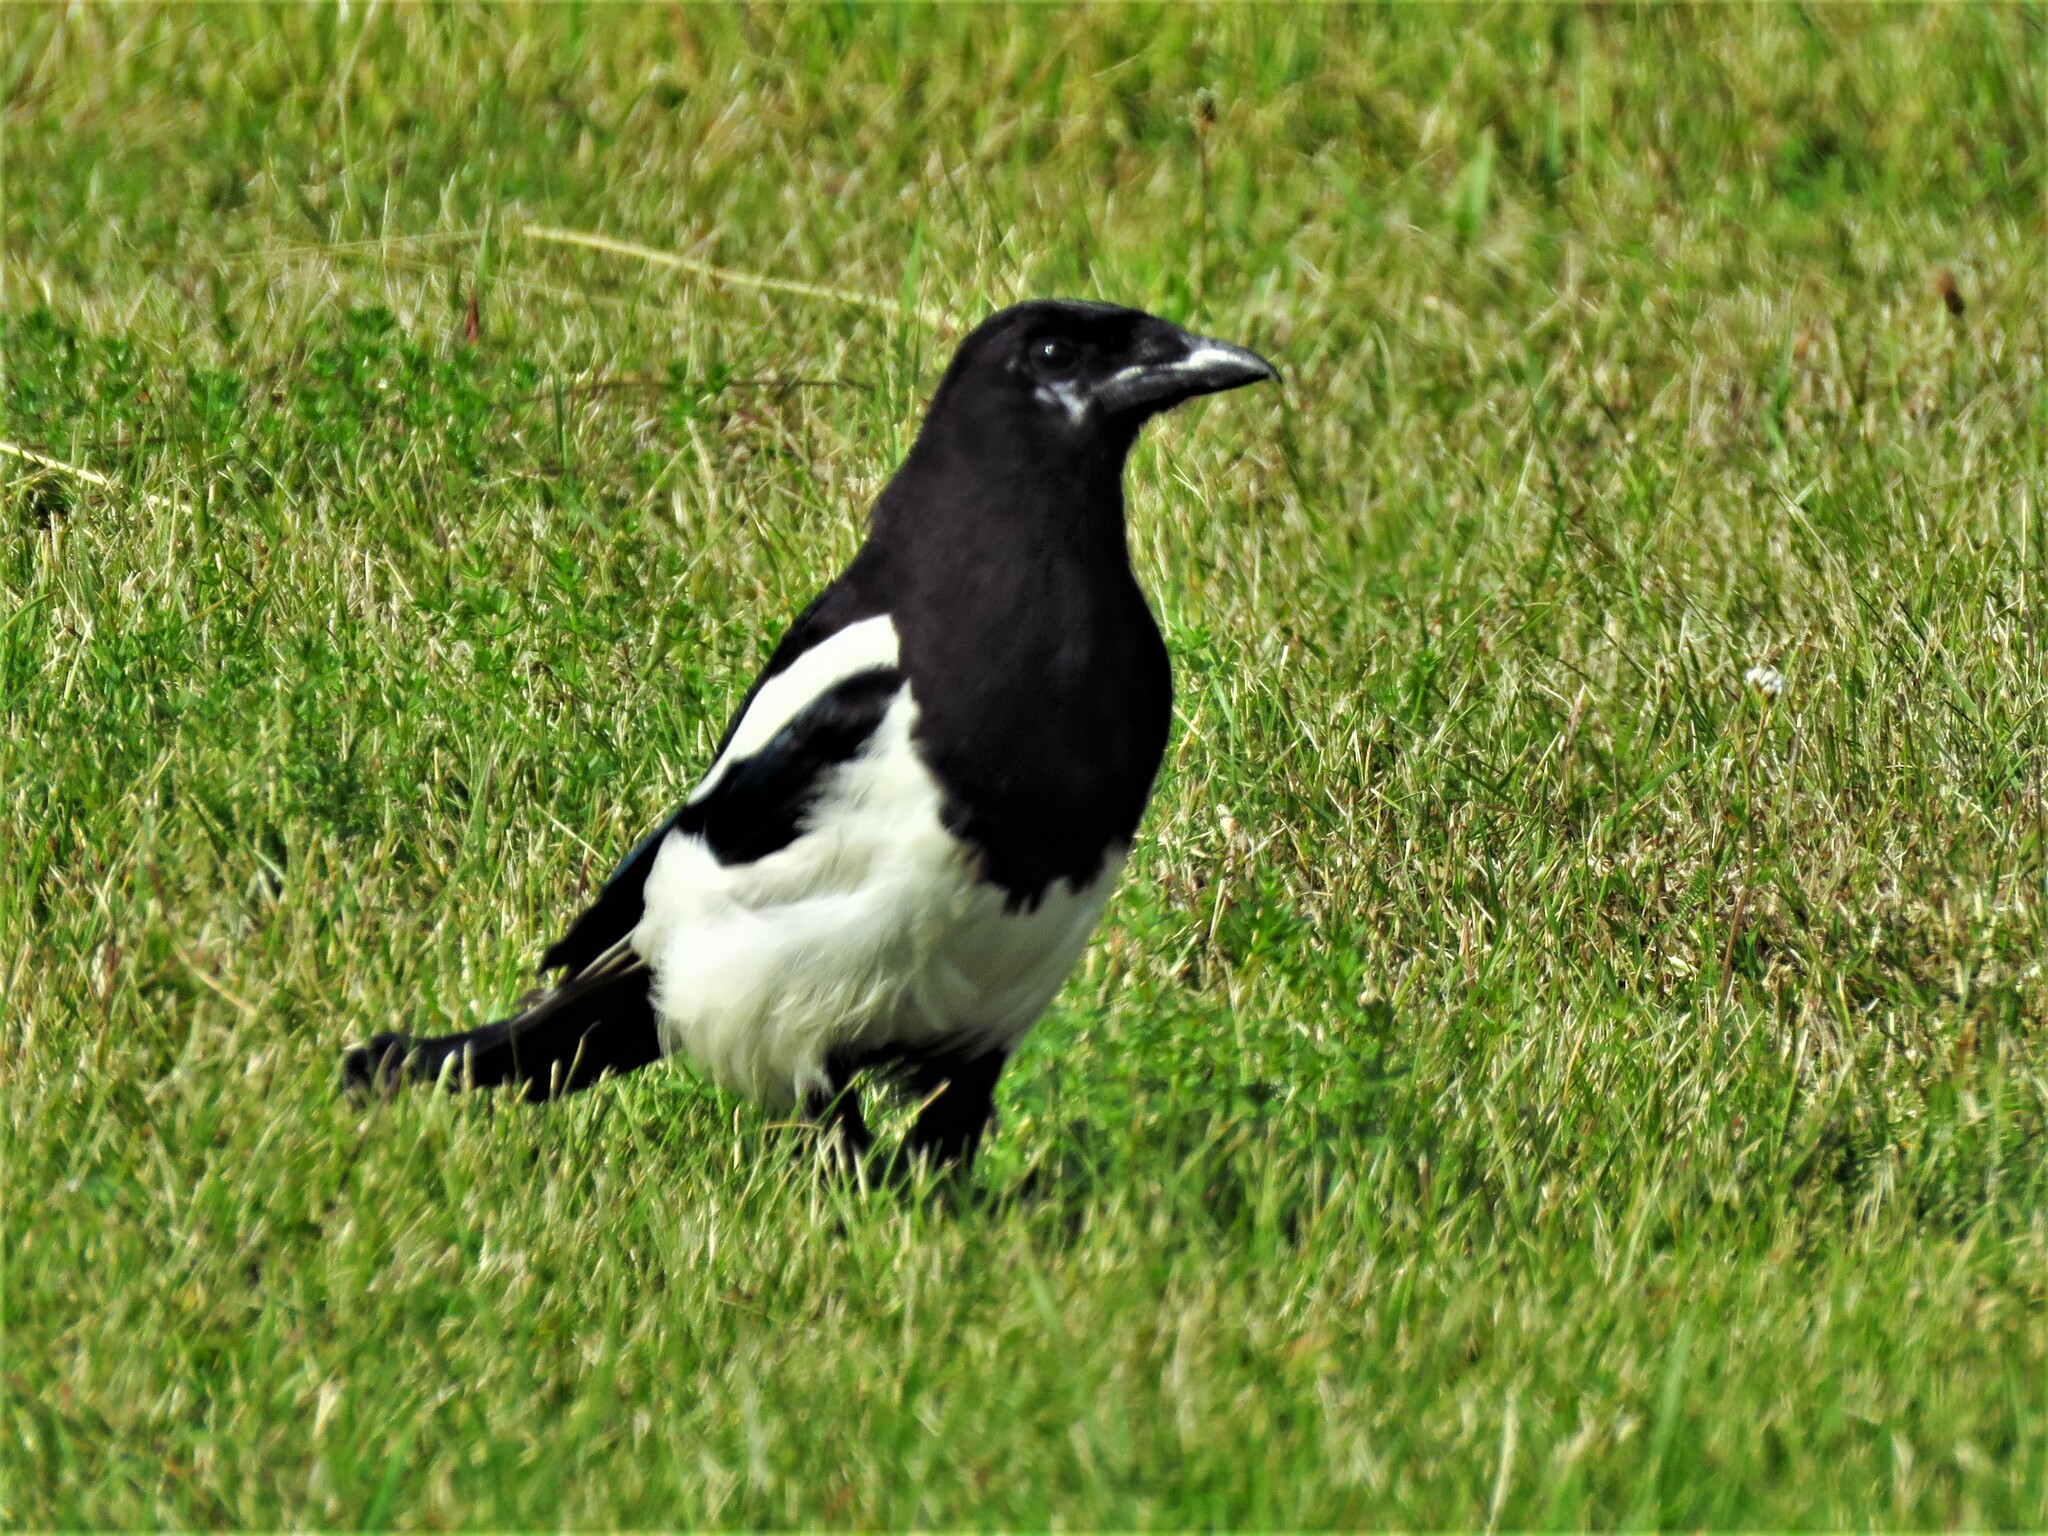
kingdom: Animalia
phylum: Chordata
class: Aves
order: Passeriformes
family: Corvidae
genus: Pica
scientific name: Pica pica
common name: Eurasian magpie
